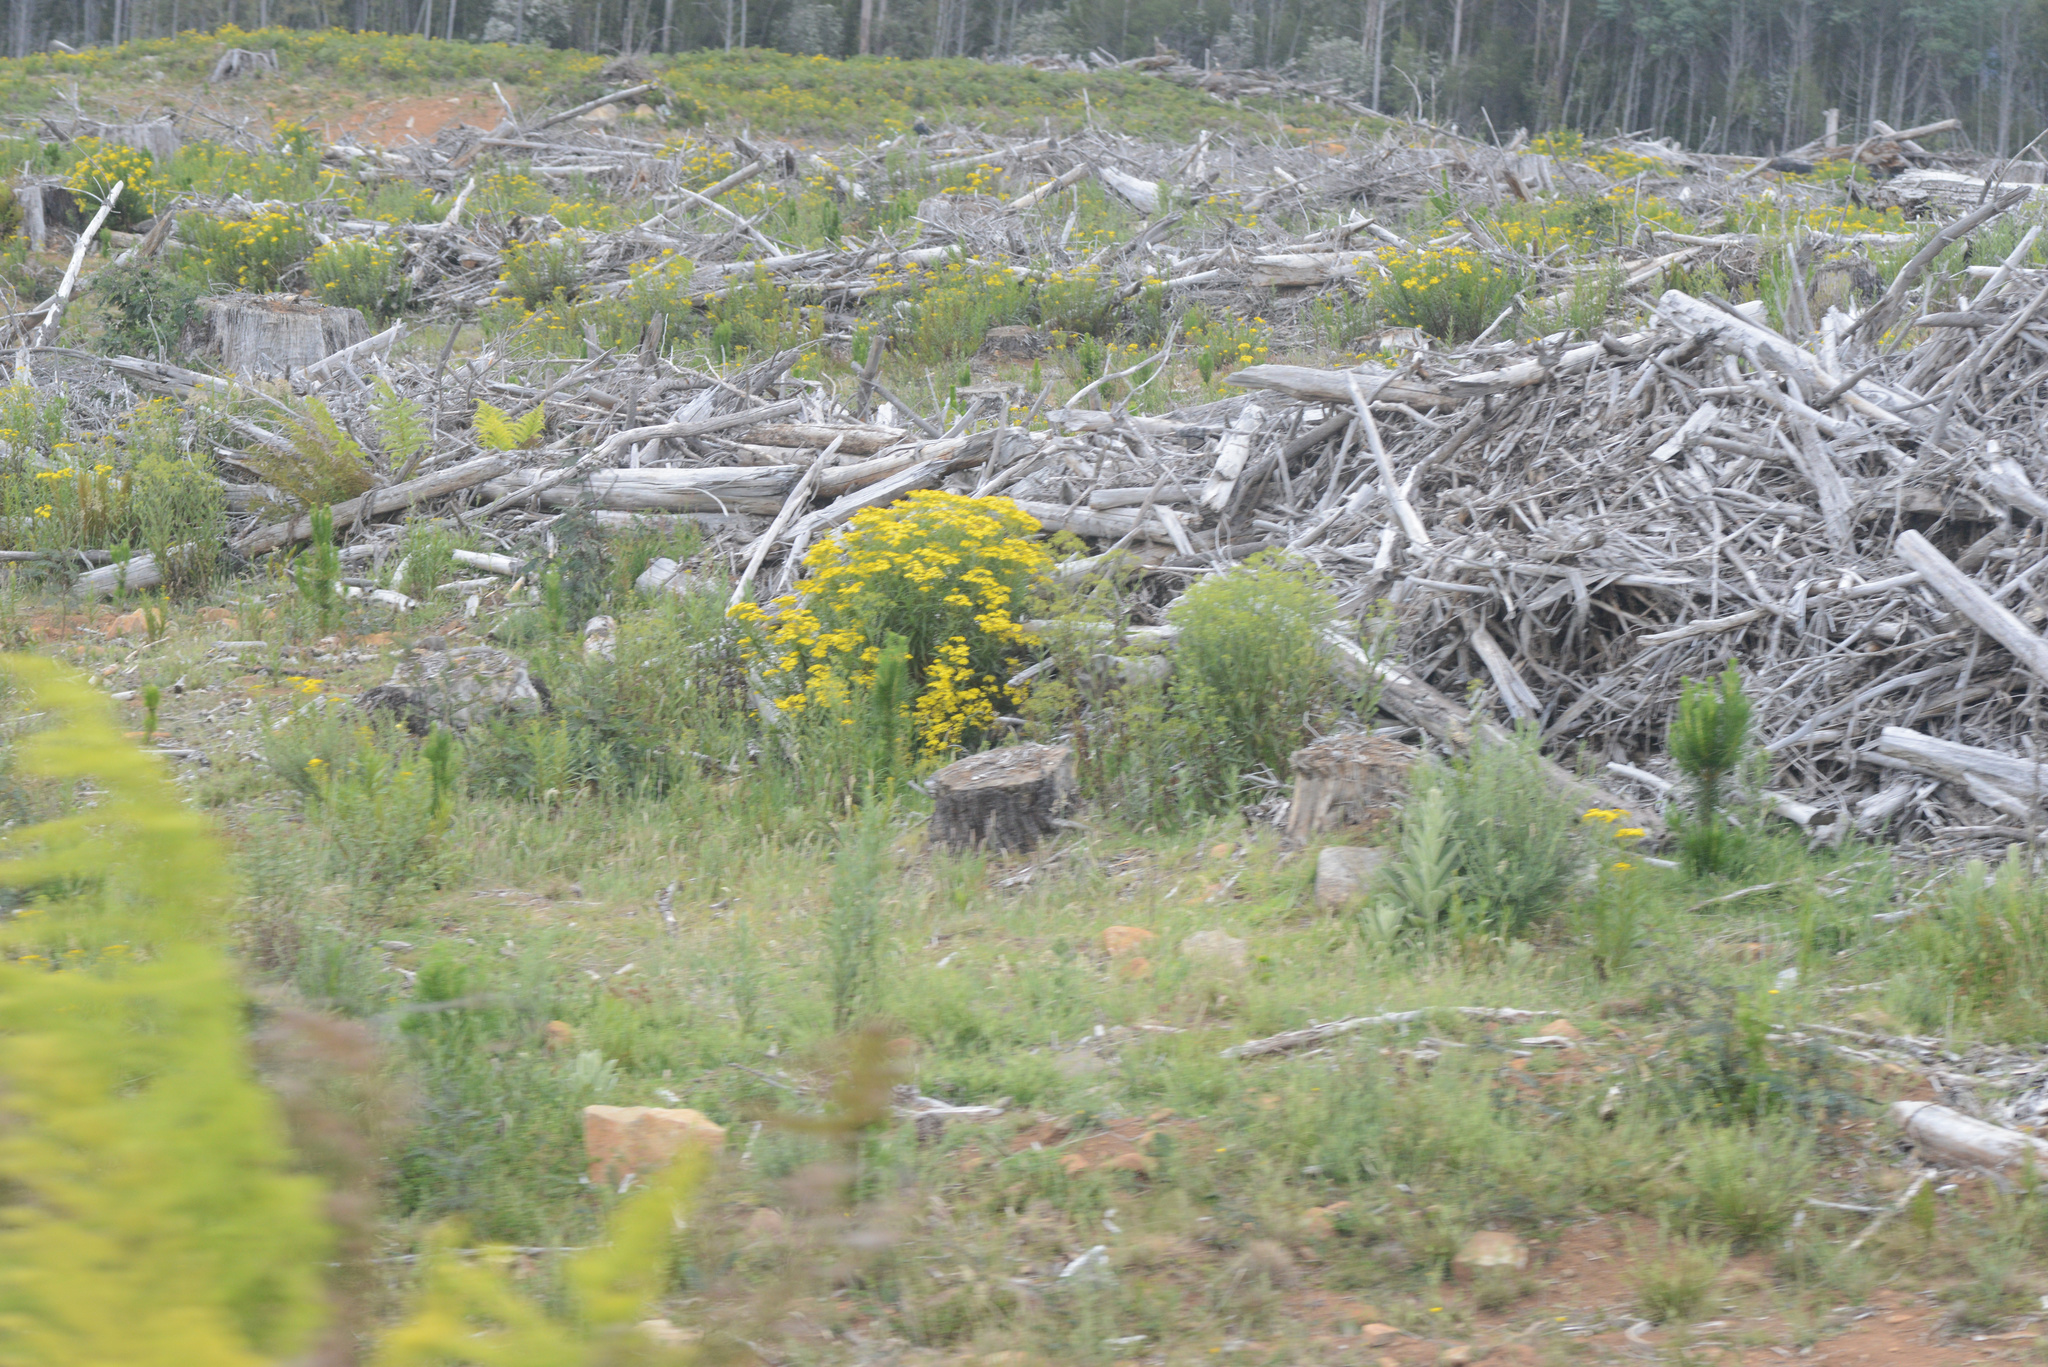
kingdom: Plantae
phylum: Tracheophyta
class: Magnoliopsida
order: Asterales
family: Asteraceae
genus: Senecio
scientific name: Senecio linearifolius
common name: Fireweed groundsel
